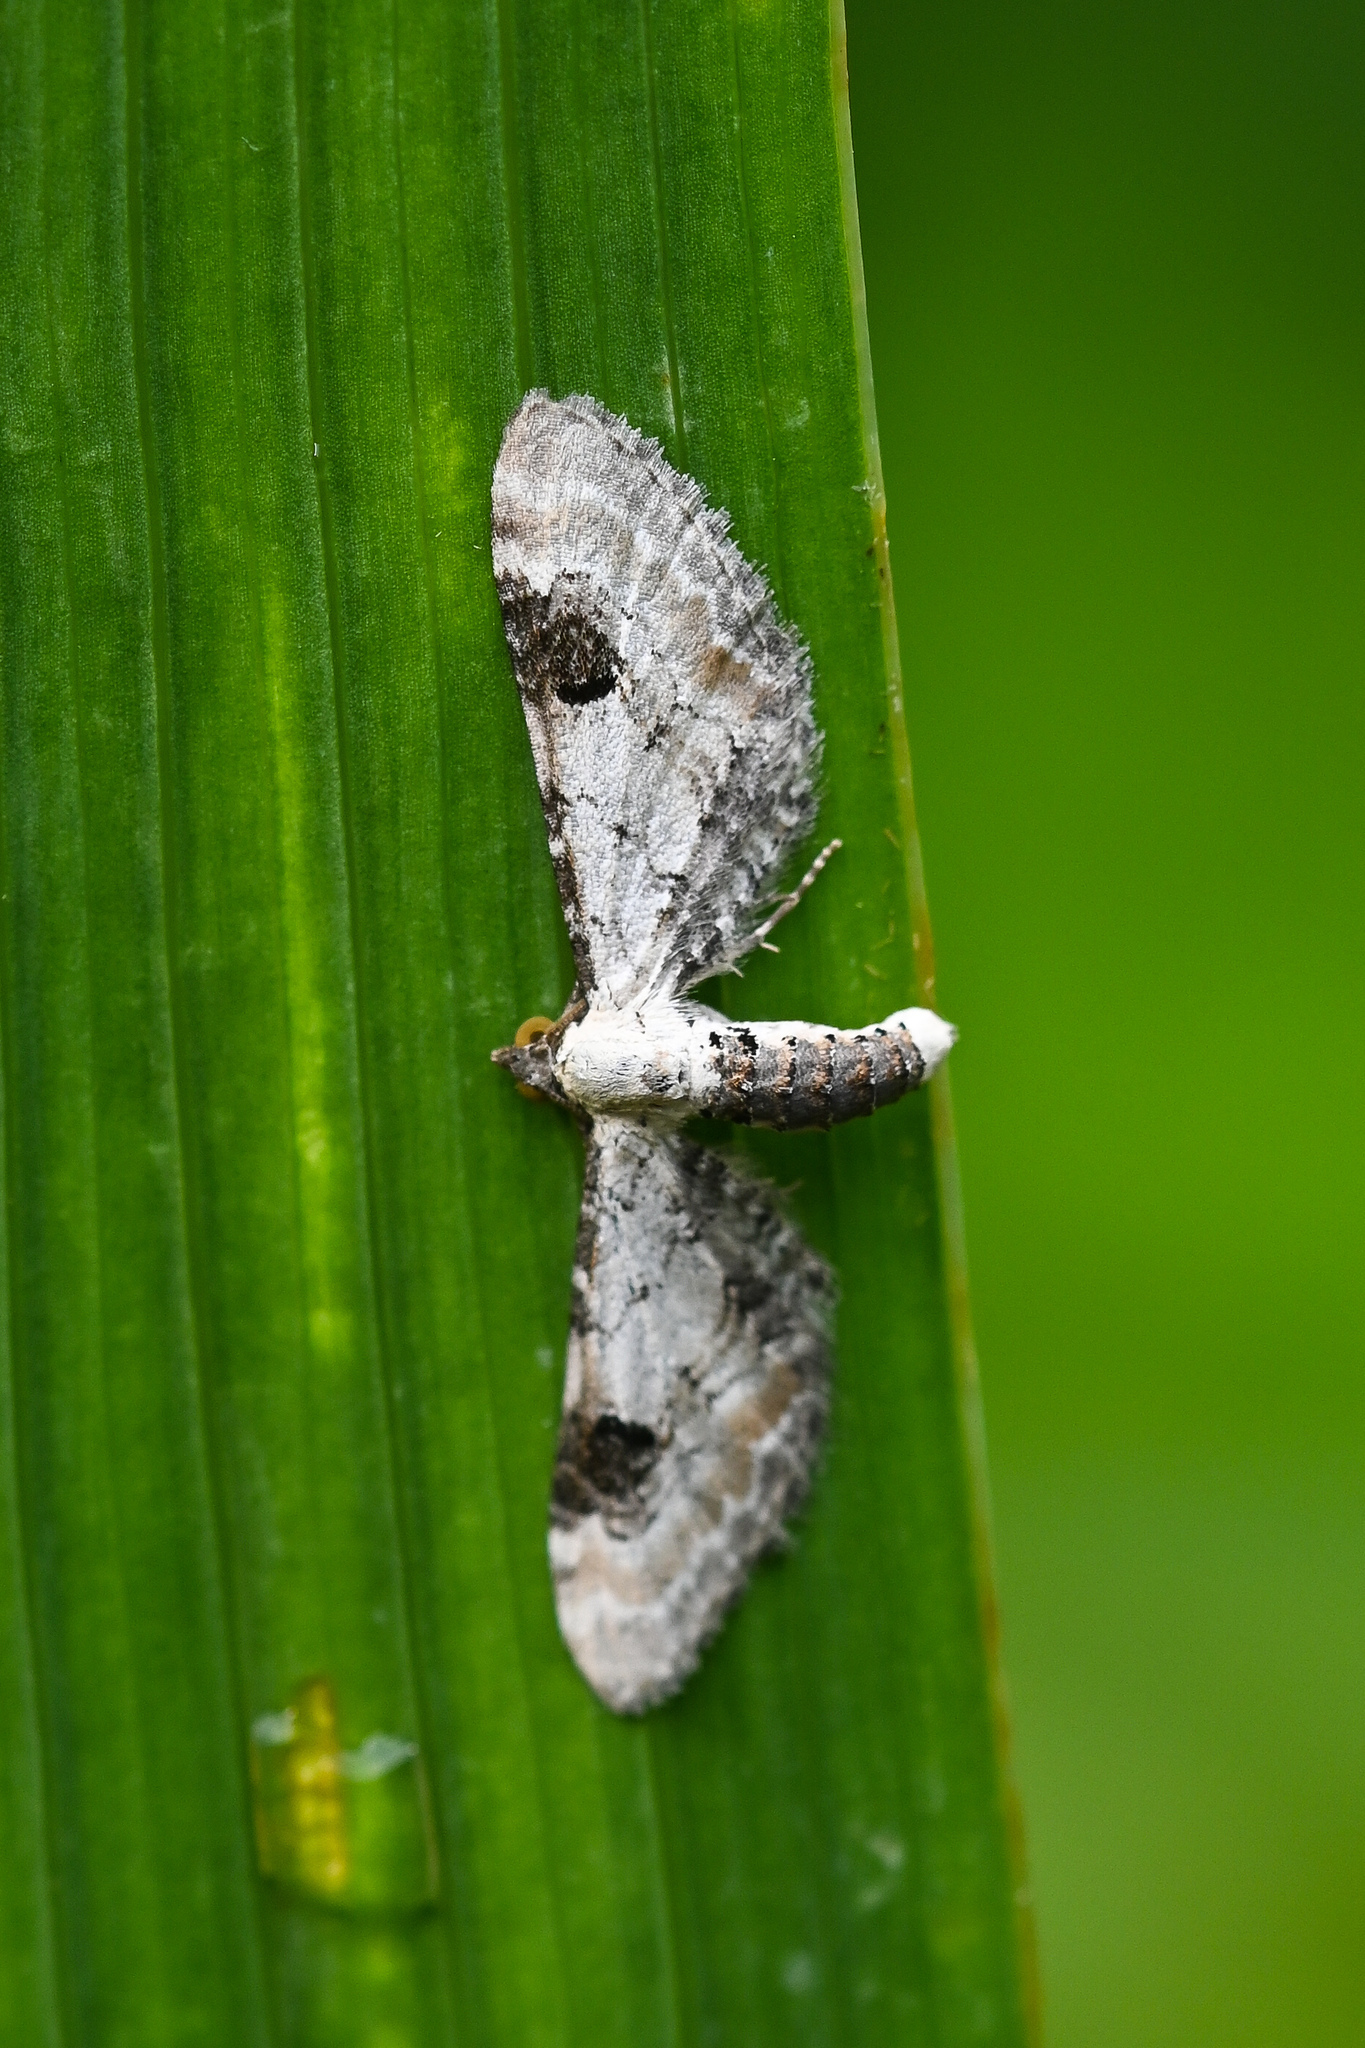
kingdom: Animalia
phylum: Arthropoda
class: Insecta
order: Lepidoptera
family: Geometridae
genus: Eupithecia
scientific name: Eupithecia centaureata
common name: Lime-speck pug
